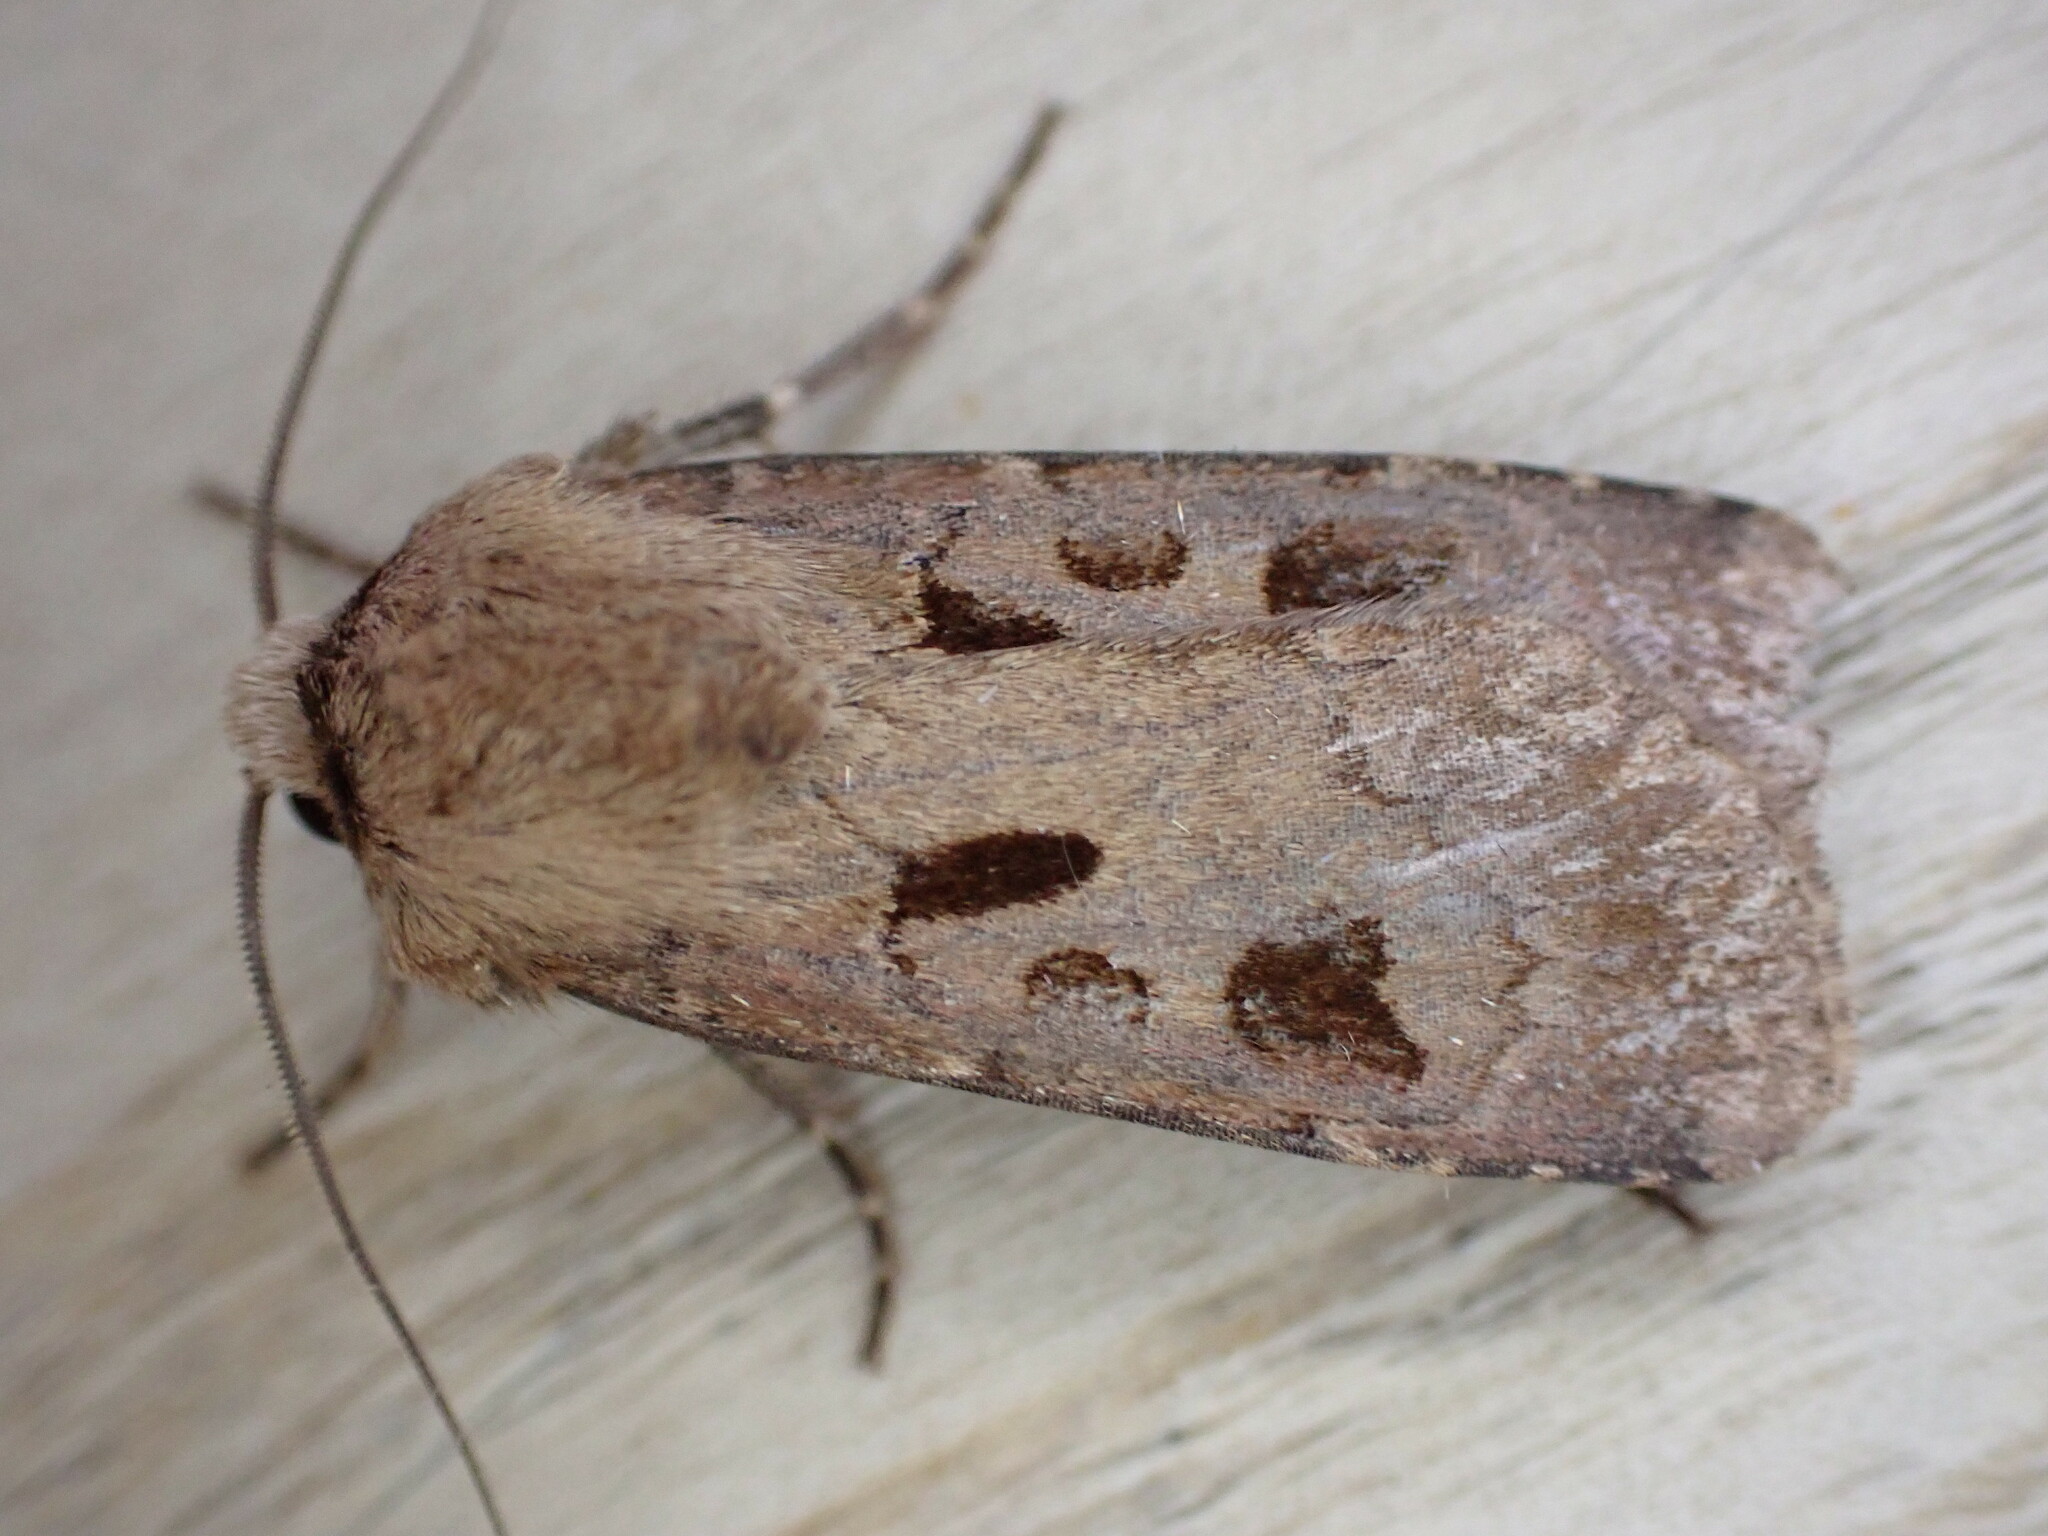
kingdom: Animalia
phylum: Arthropoda
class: Insecta
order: Lepidoptera
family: Noctuidae
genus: Agrotis
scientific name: Agrotis exclamationis
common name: Heart and dart
